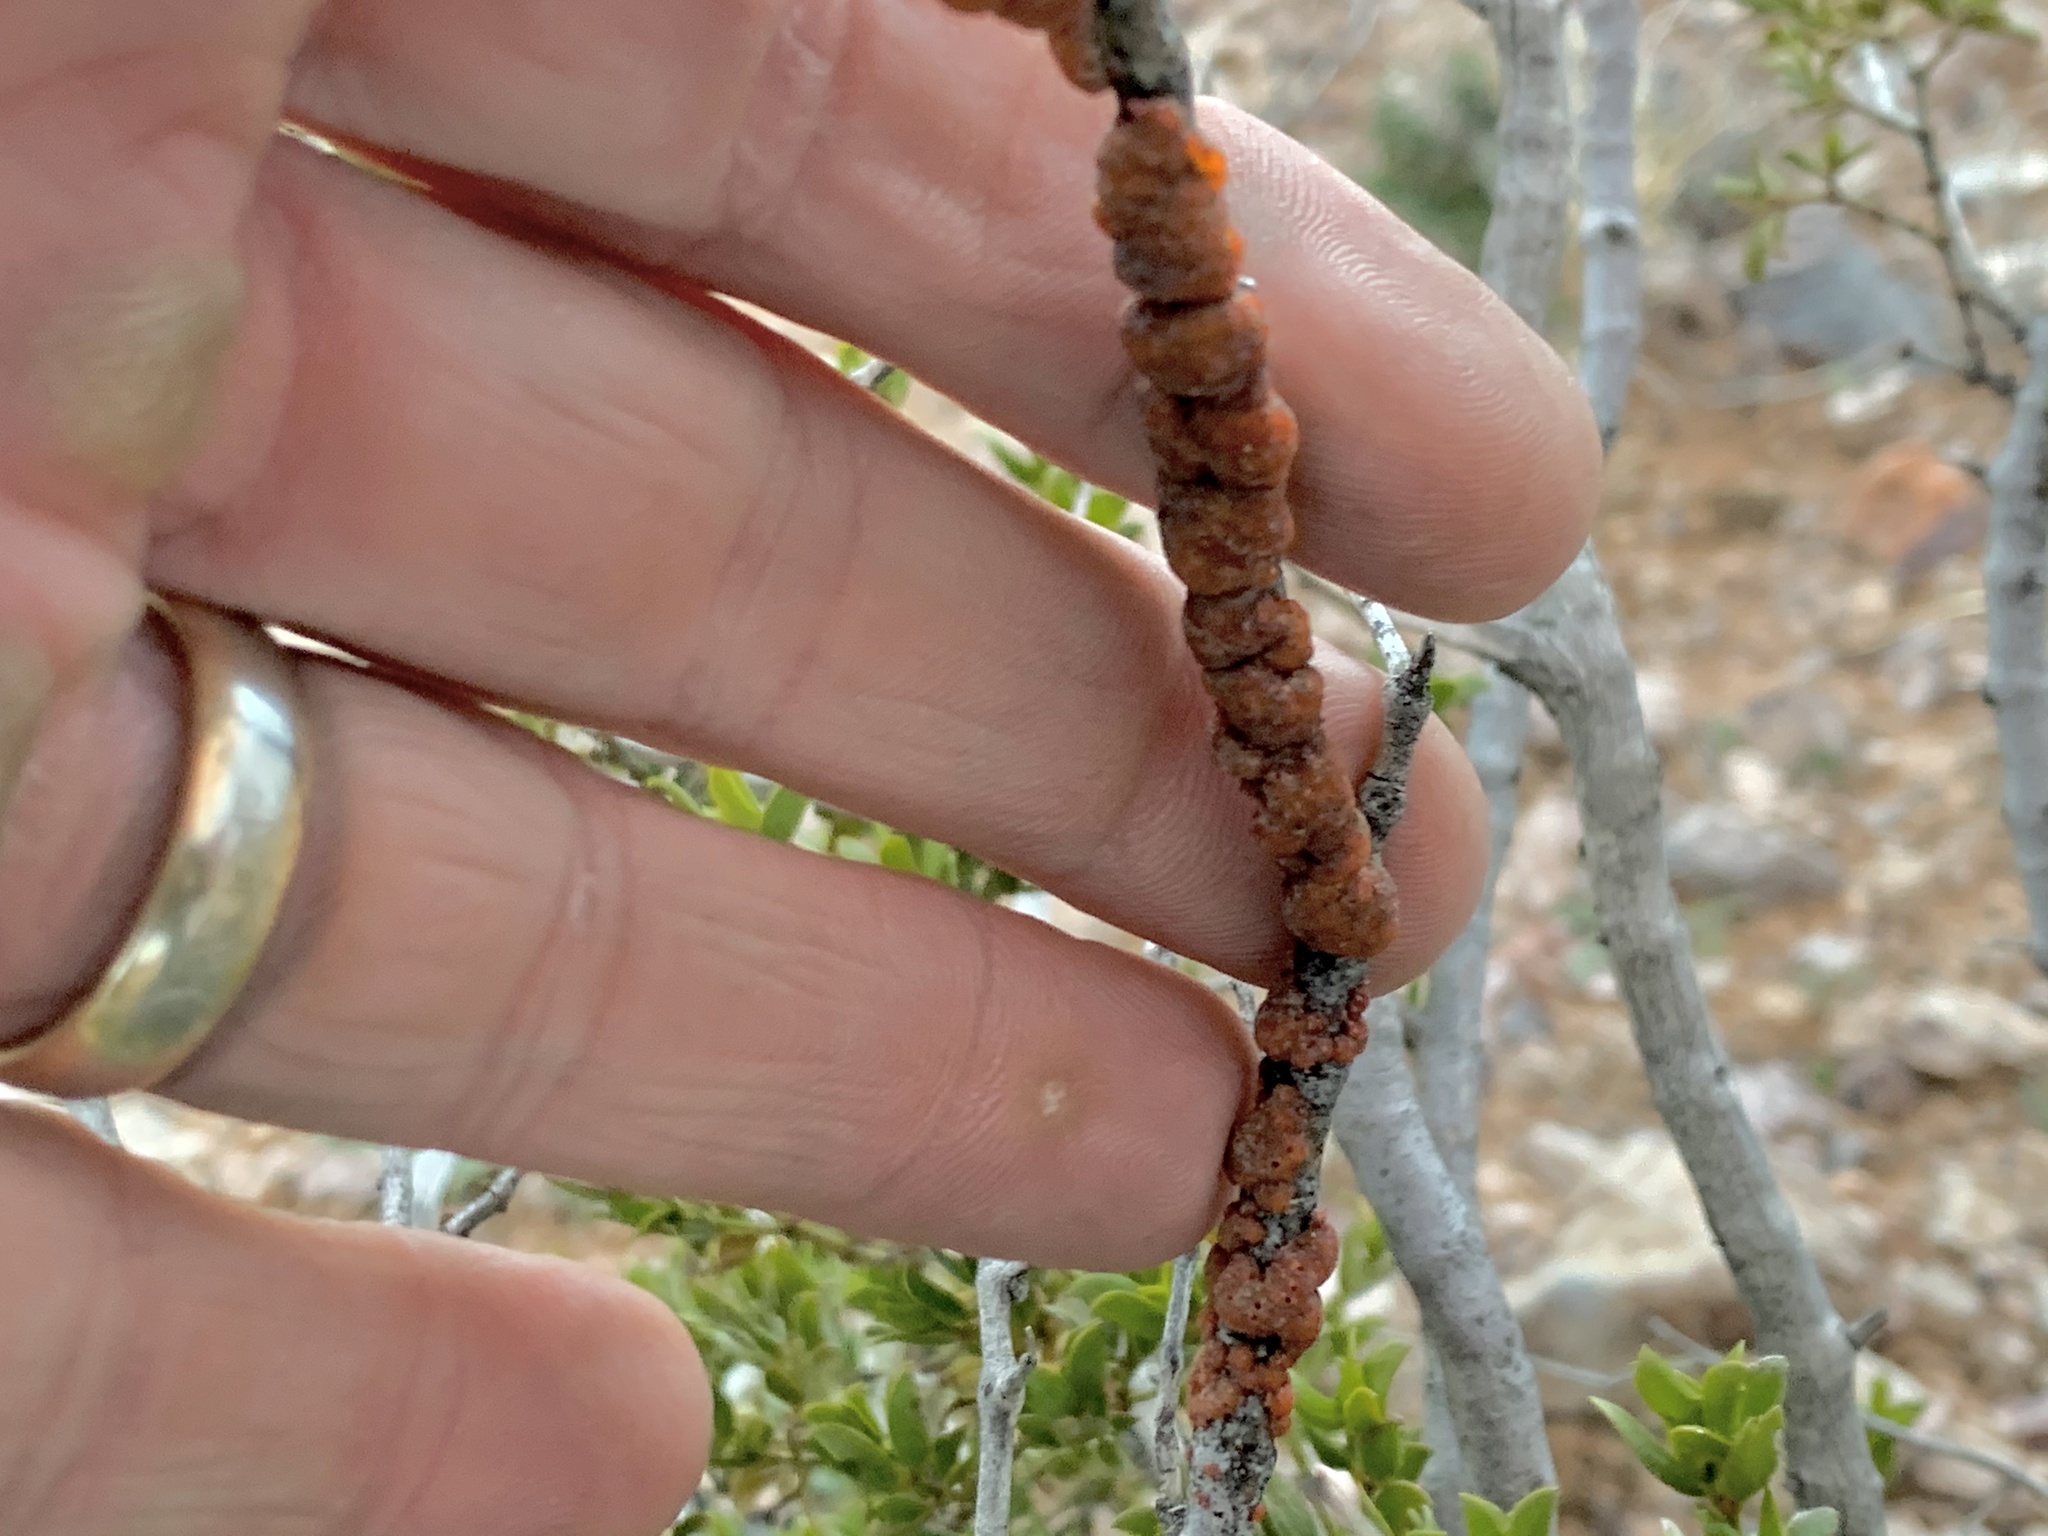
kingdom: Animalia
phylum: Arthropoda
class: Insecta
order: Hemiptera
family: Kerriidae
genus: Tachardiella
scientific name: Tachardiella larreae
